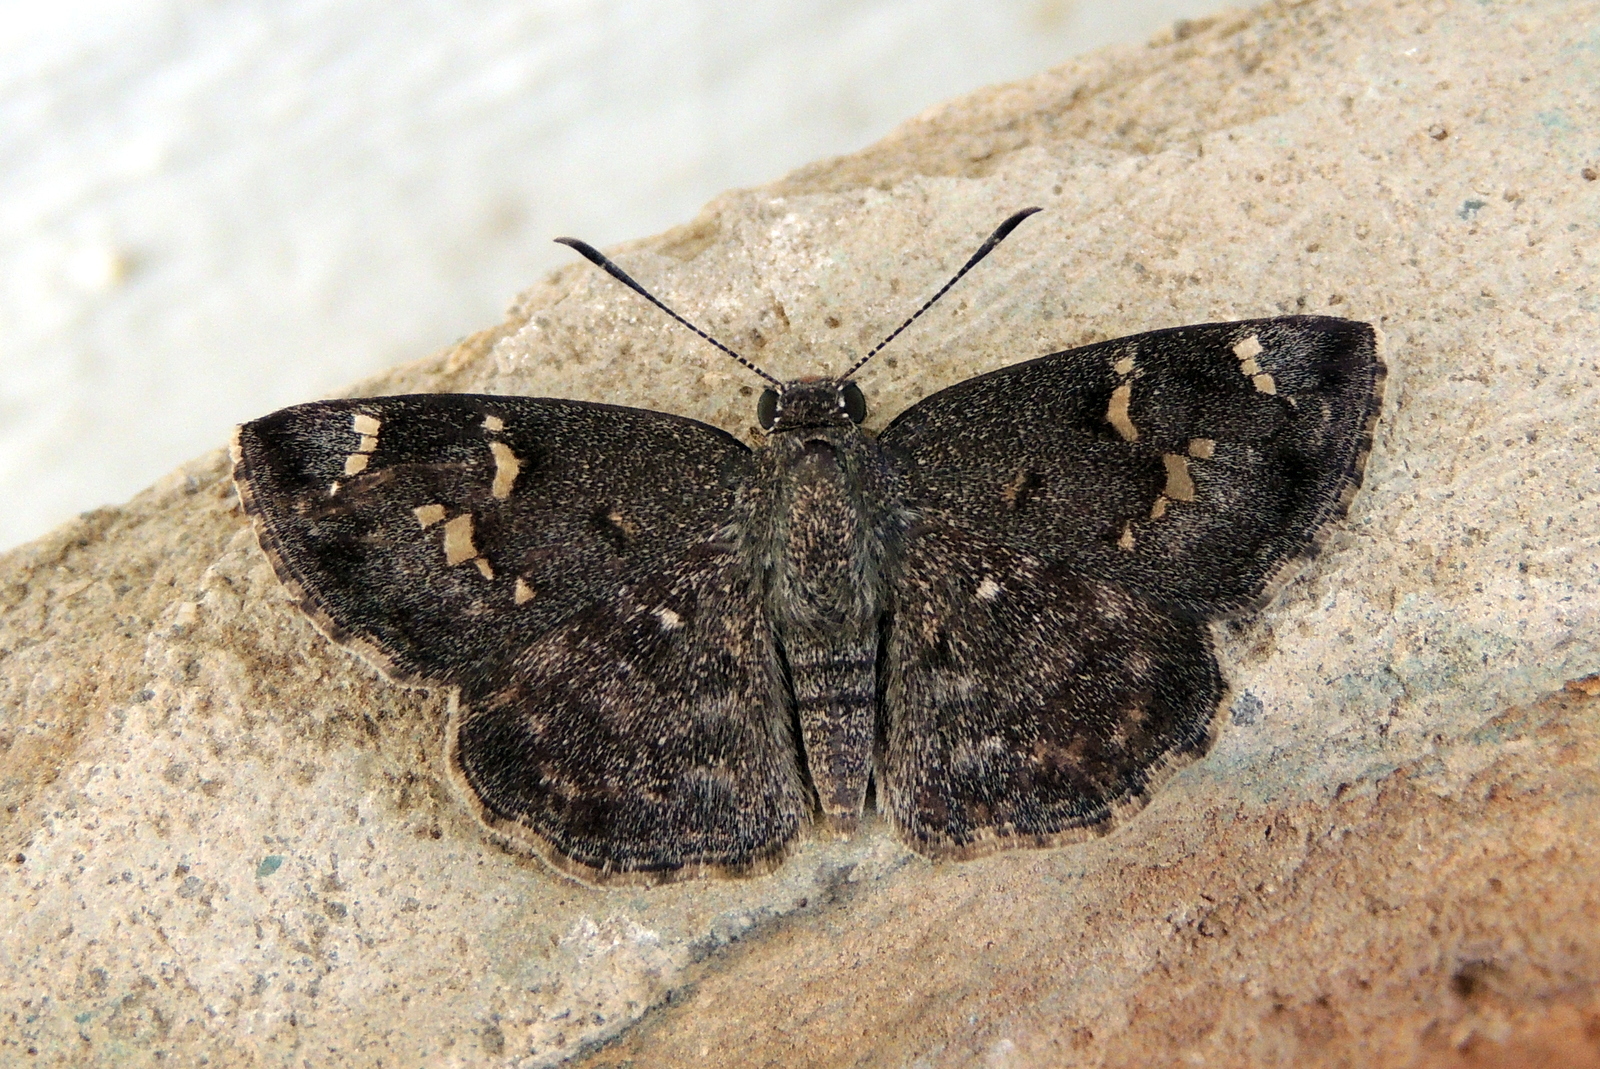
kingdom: Animalia
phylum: Arthropoda
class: Insecta
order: Lepidoptera
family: Hesperiidae
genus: Sarangesa
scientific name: Sarangesa purendra
